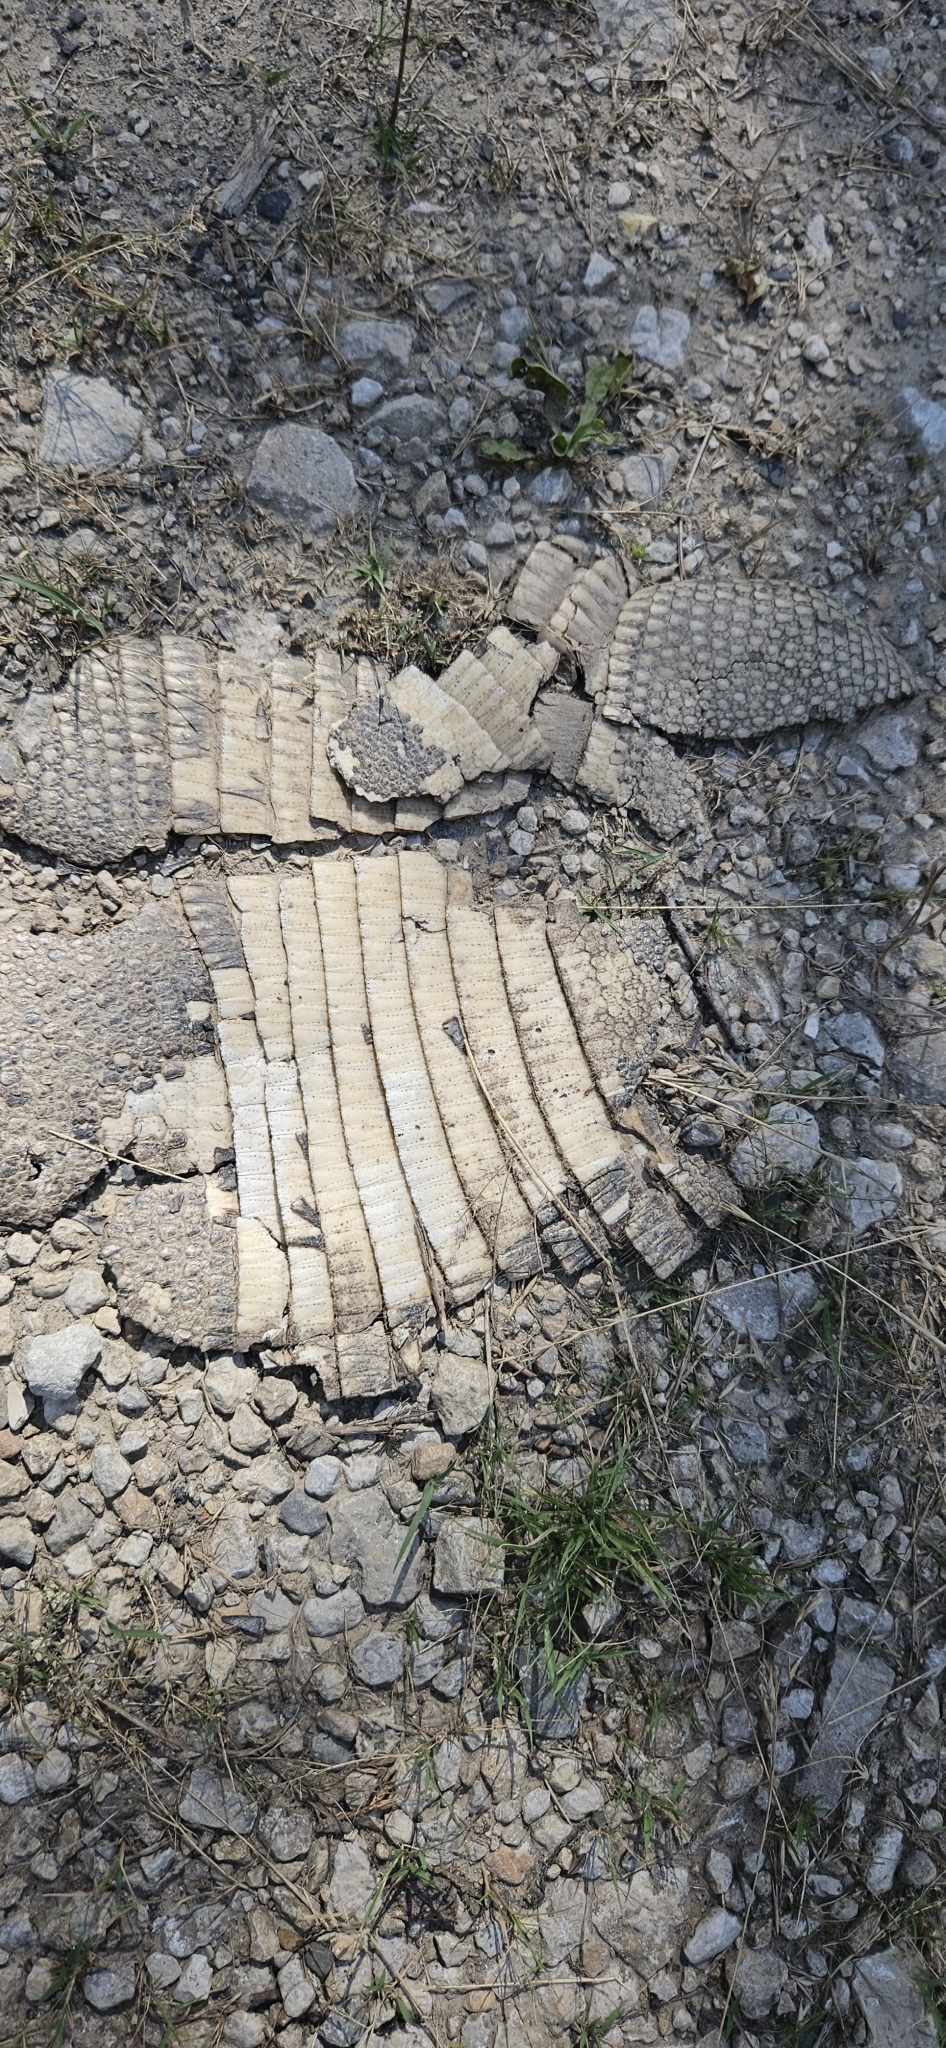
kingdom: Animalia
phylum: Chordata
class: Mammalia
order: Cingulata
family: Dasypodidae
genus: Dasypus
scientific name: Dasypus novemcinctus
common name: Nine-banded armadillo
